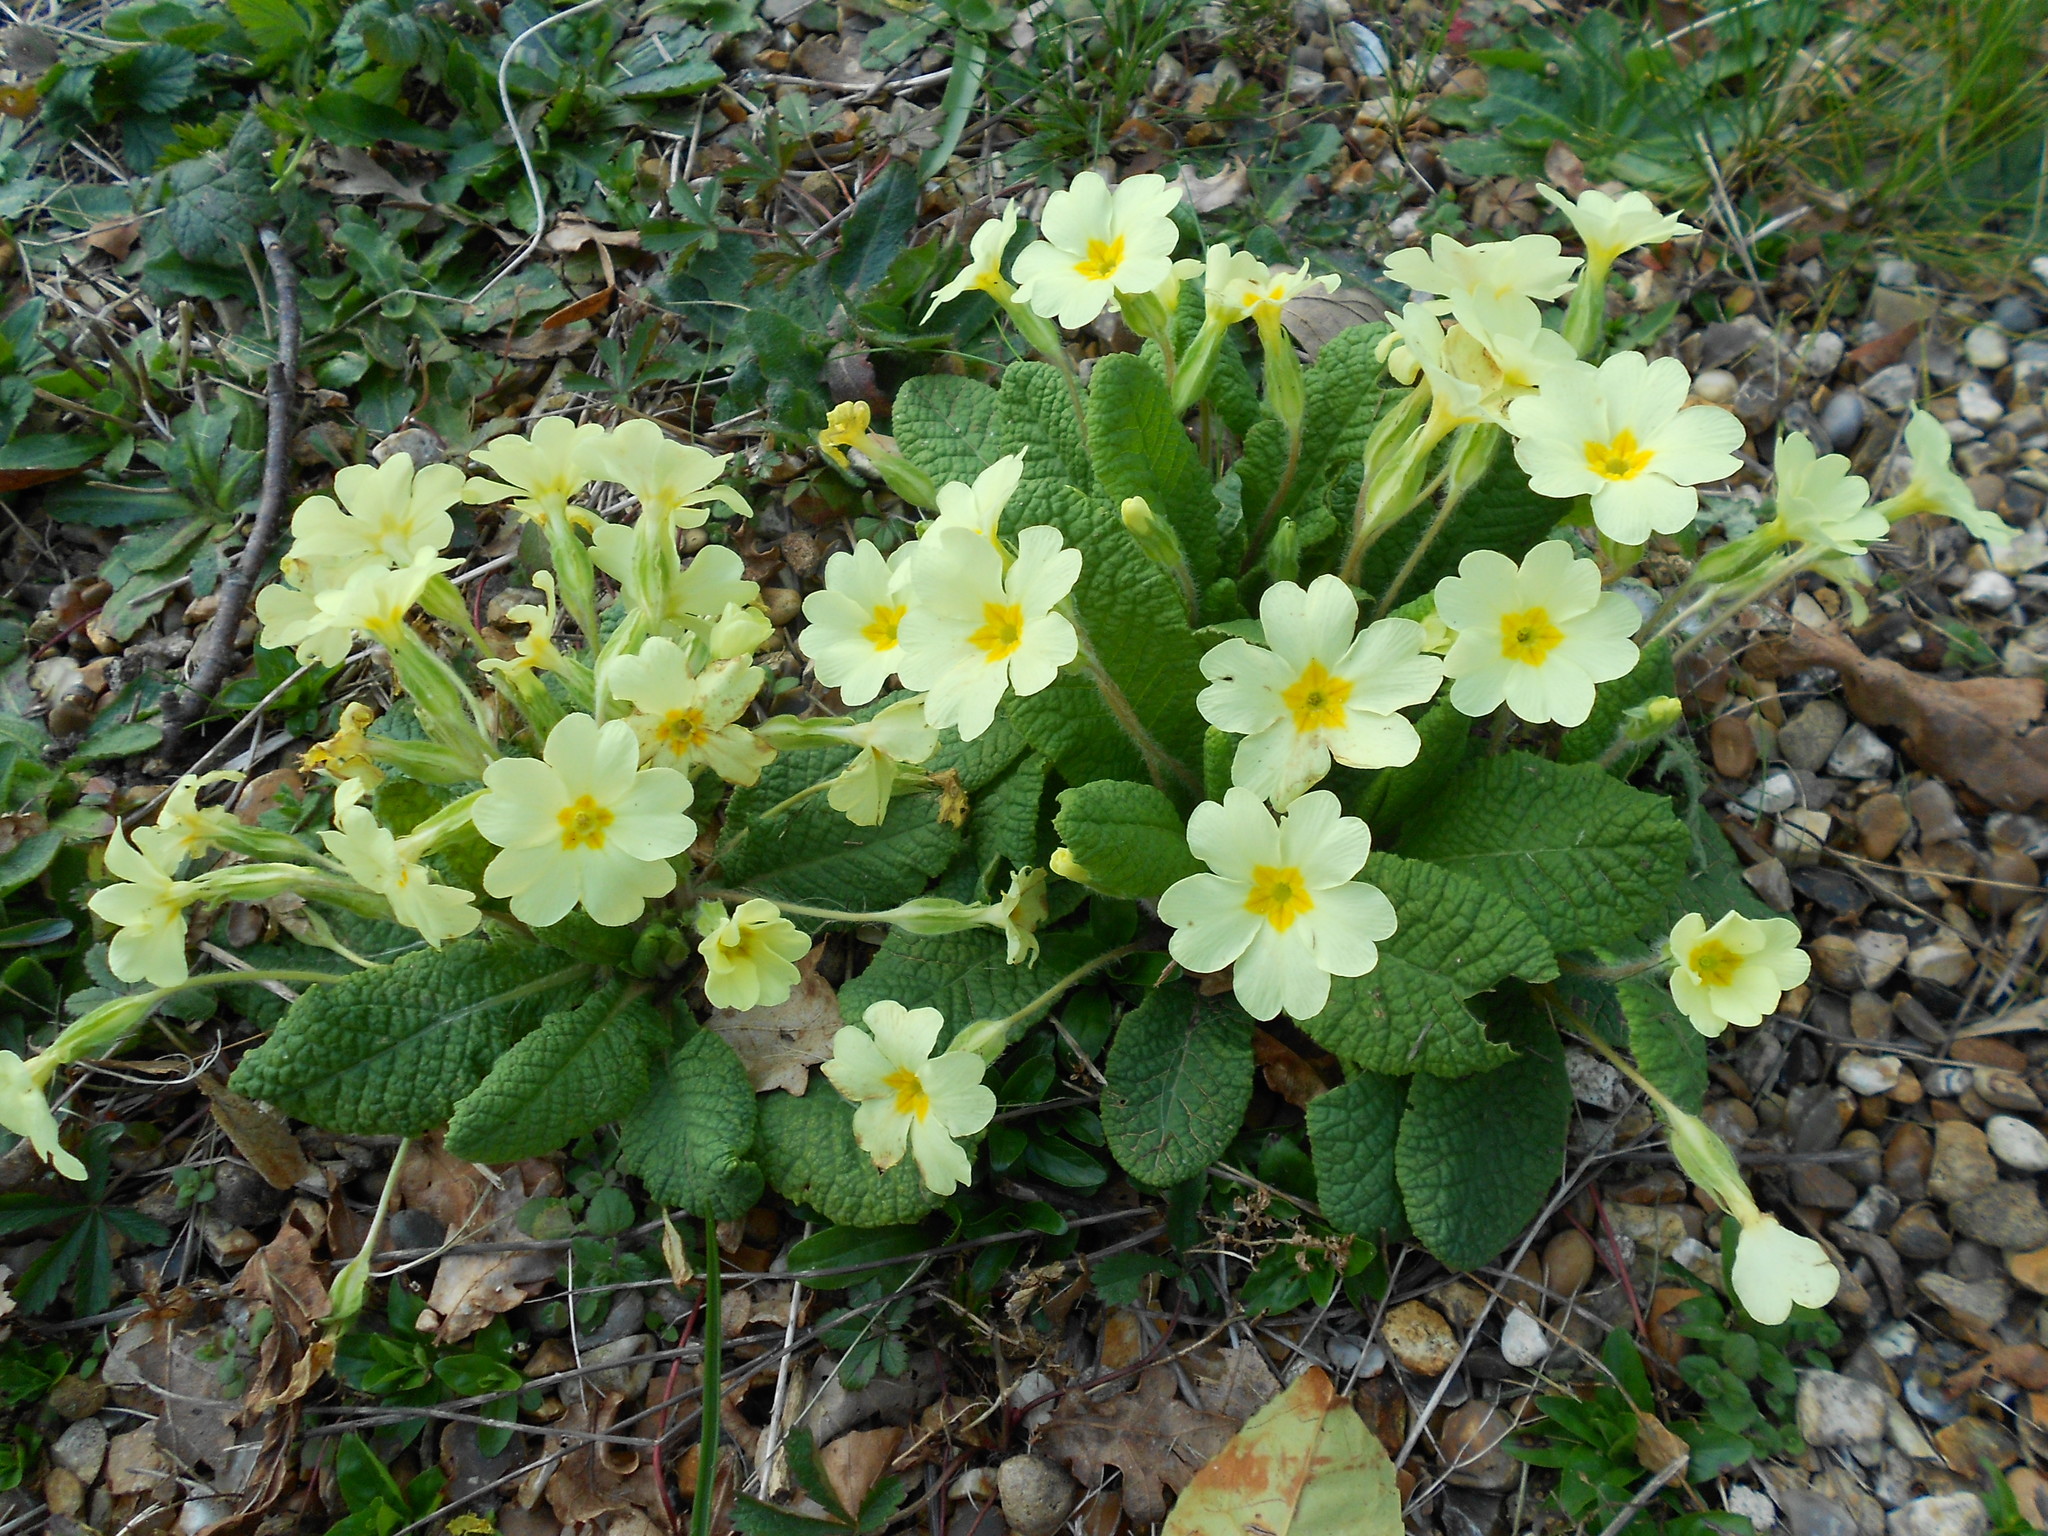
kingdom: Plantae
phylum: Tracheophyta
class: Magnoliopsida
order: Ericales
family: Primulaceae
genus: Primula
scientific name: Primula vulgaris
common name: Primrose
